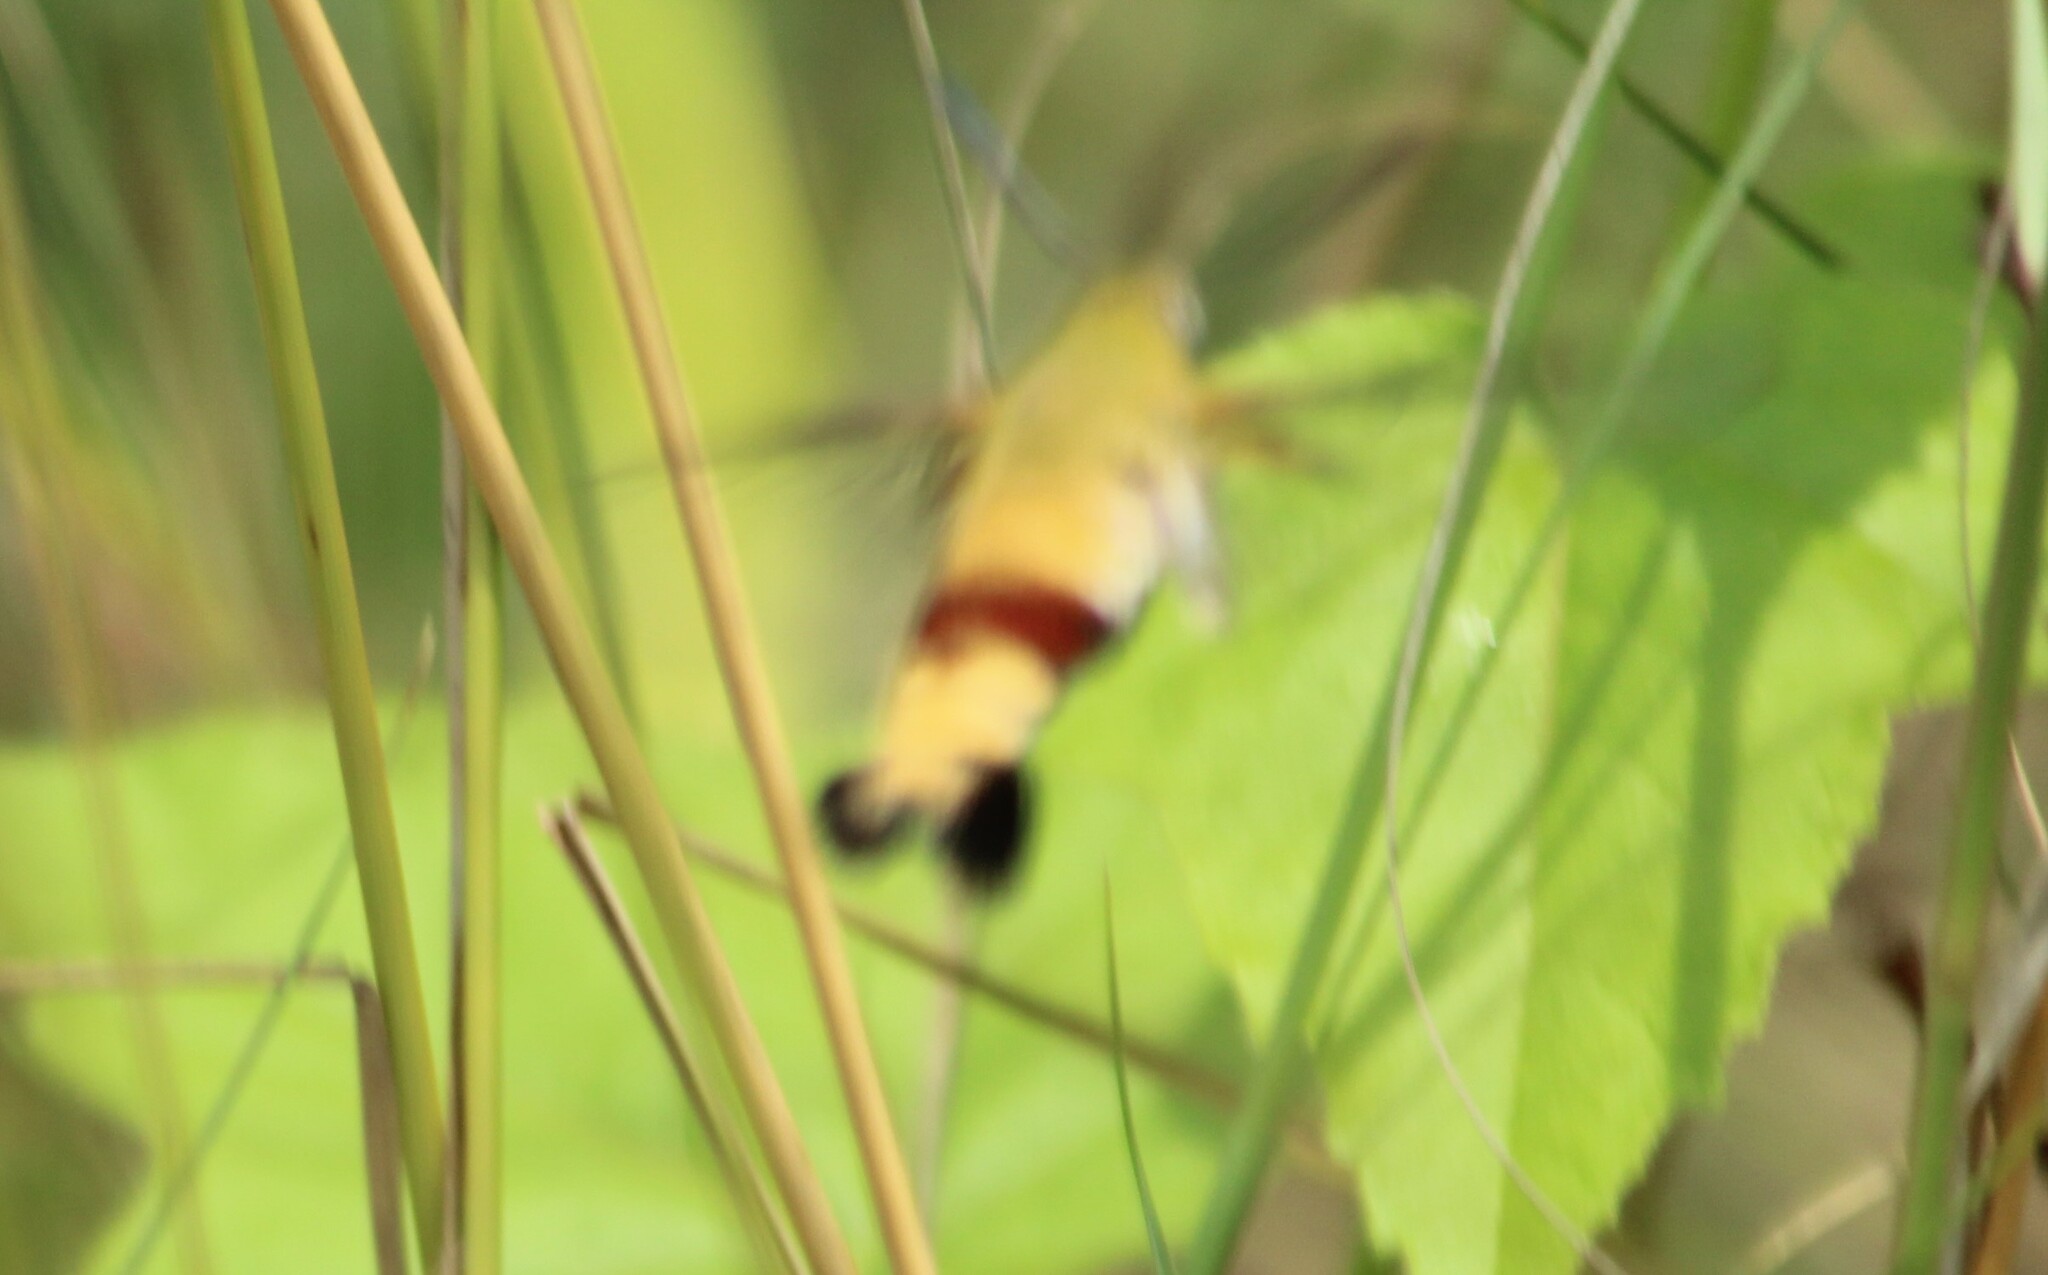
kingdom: Animalia
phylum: Arthropoda
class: Insecta
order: Lepidoptera
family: Sphingidae
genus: Cephonodes
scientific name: Cephonodes hylas
